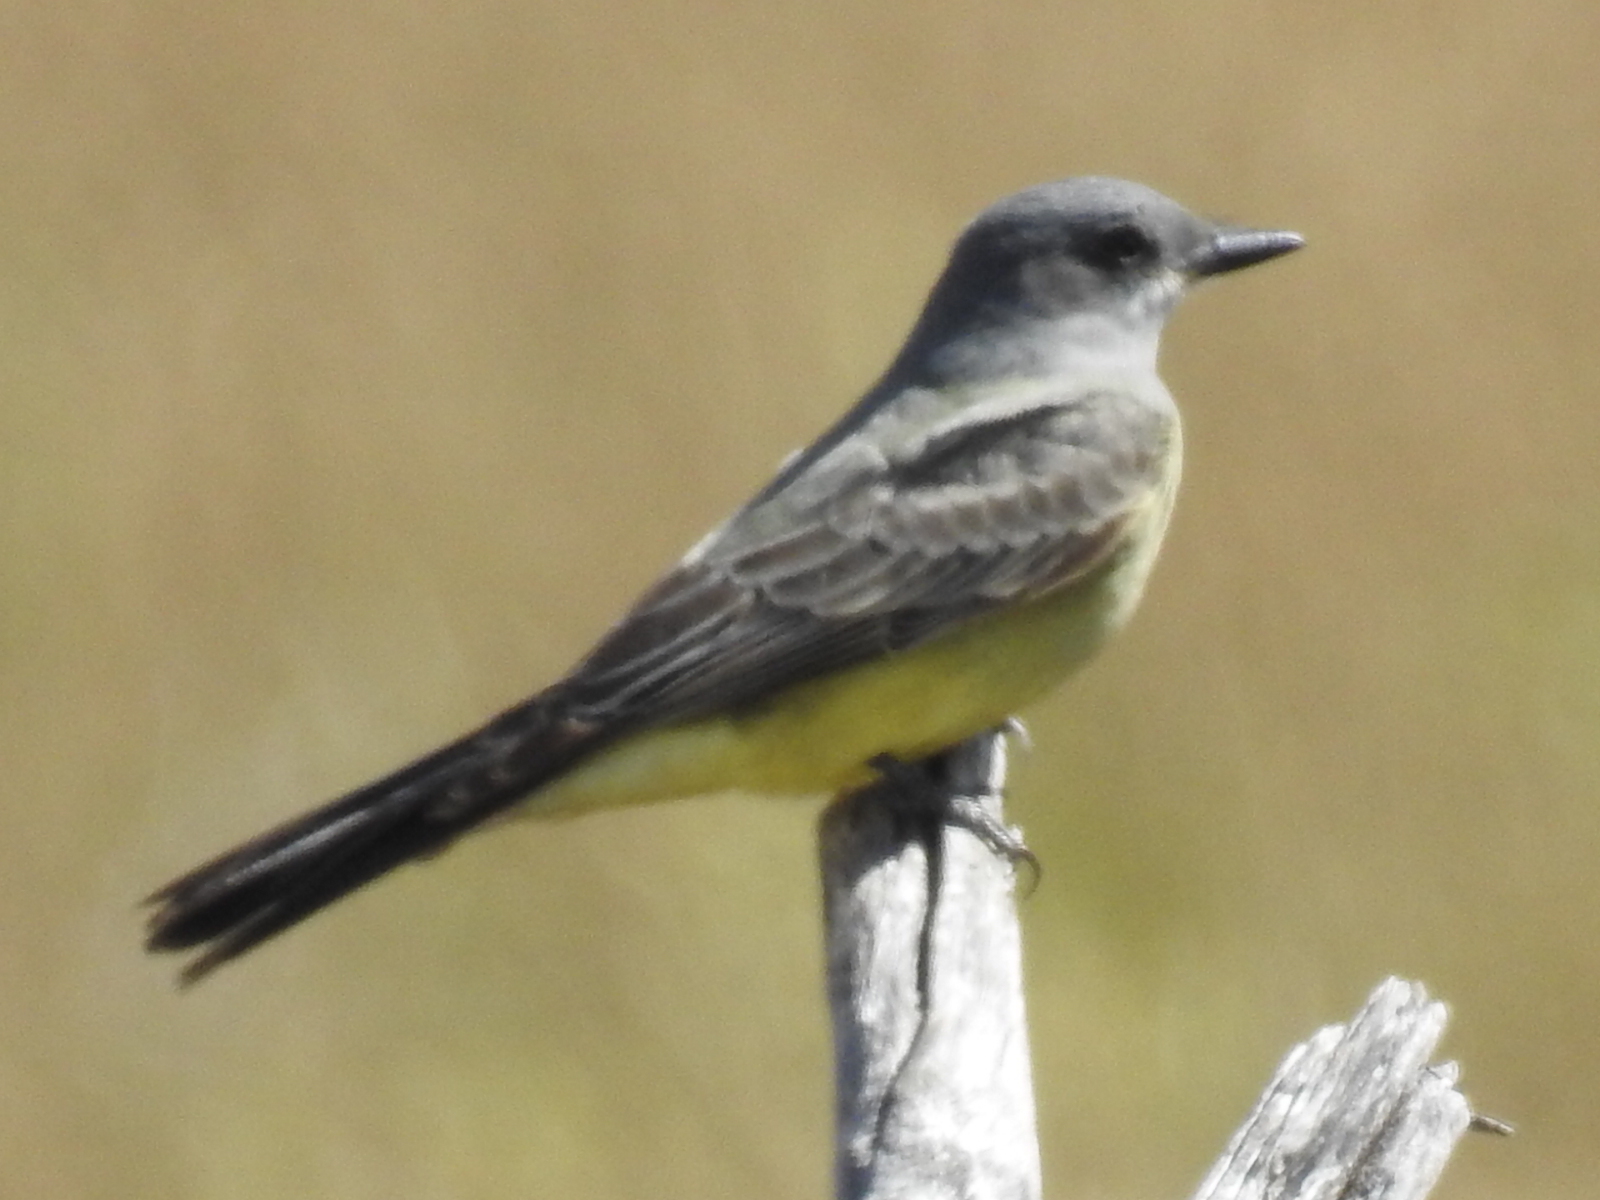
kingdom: Animalia
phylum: Chordata
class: Aves
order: Passeriformes
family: Tyrannidae
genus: Tyrannus
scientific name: Tyrannus vociferans
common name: Cassin's kingbird
